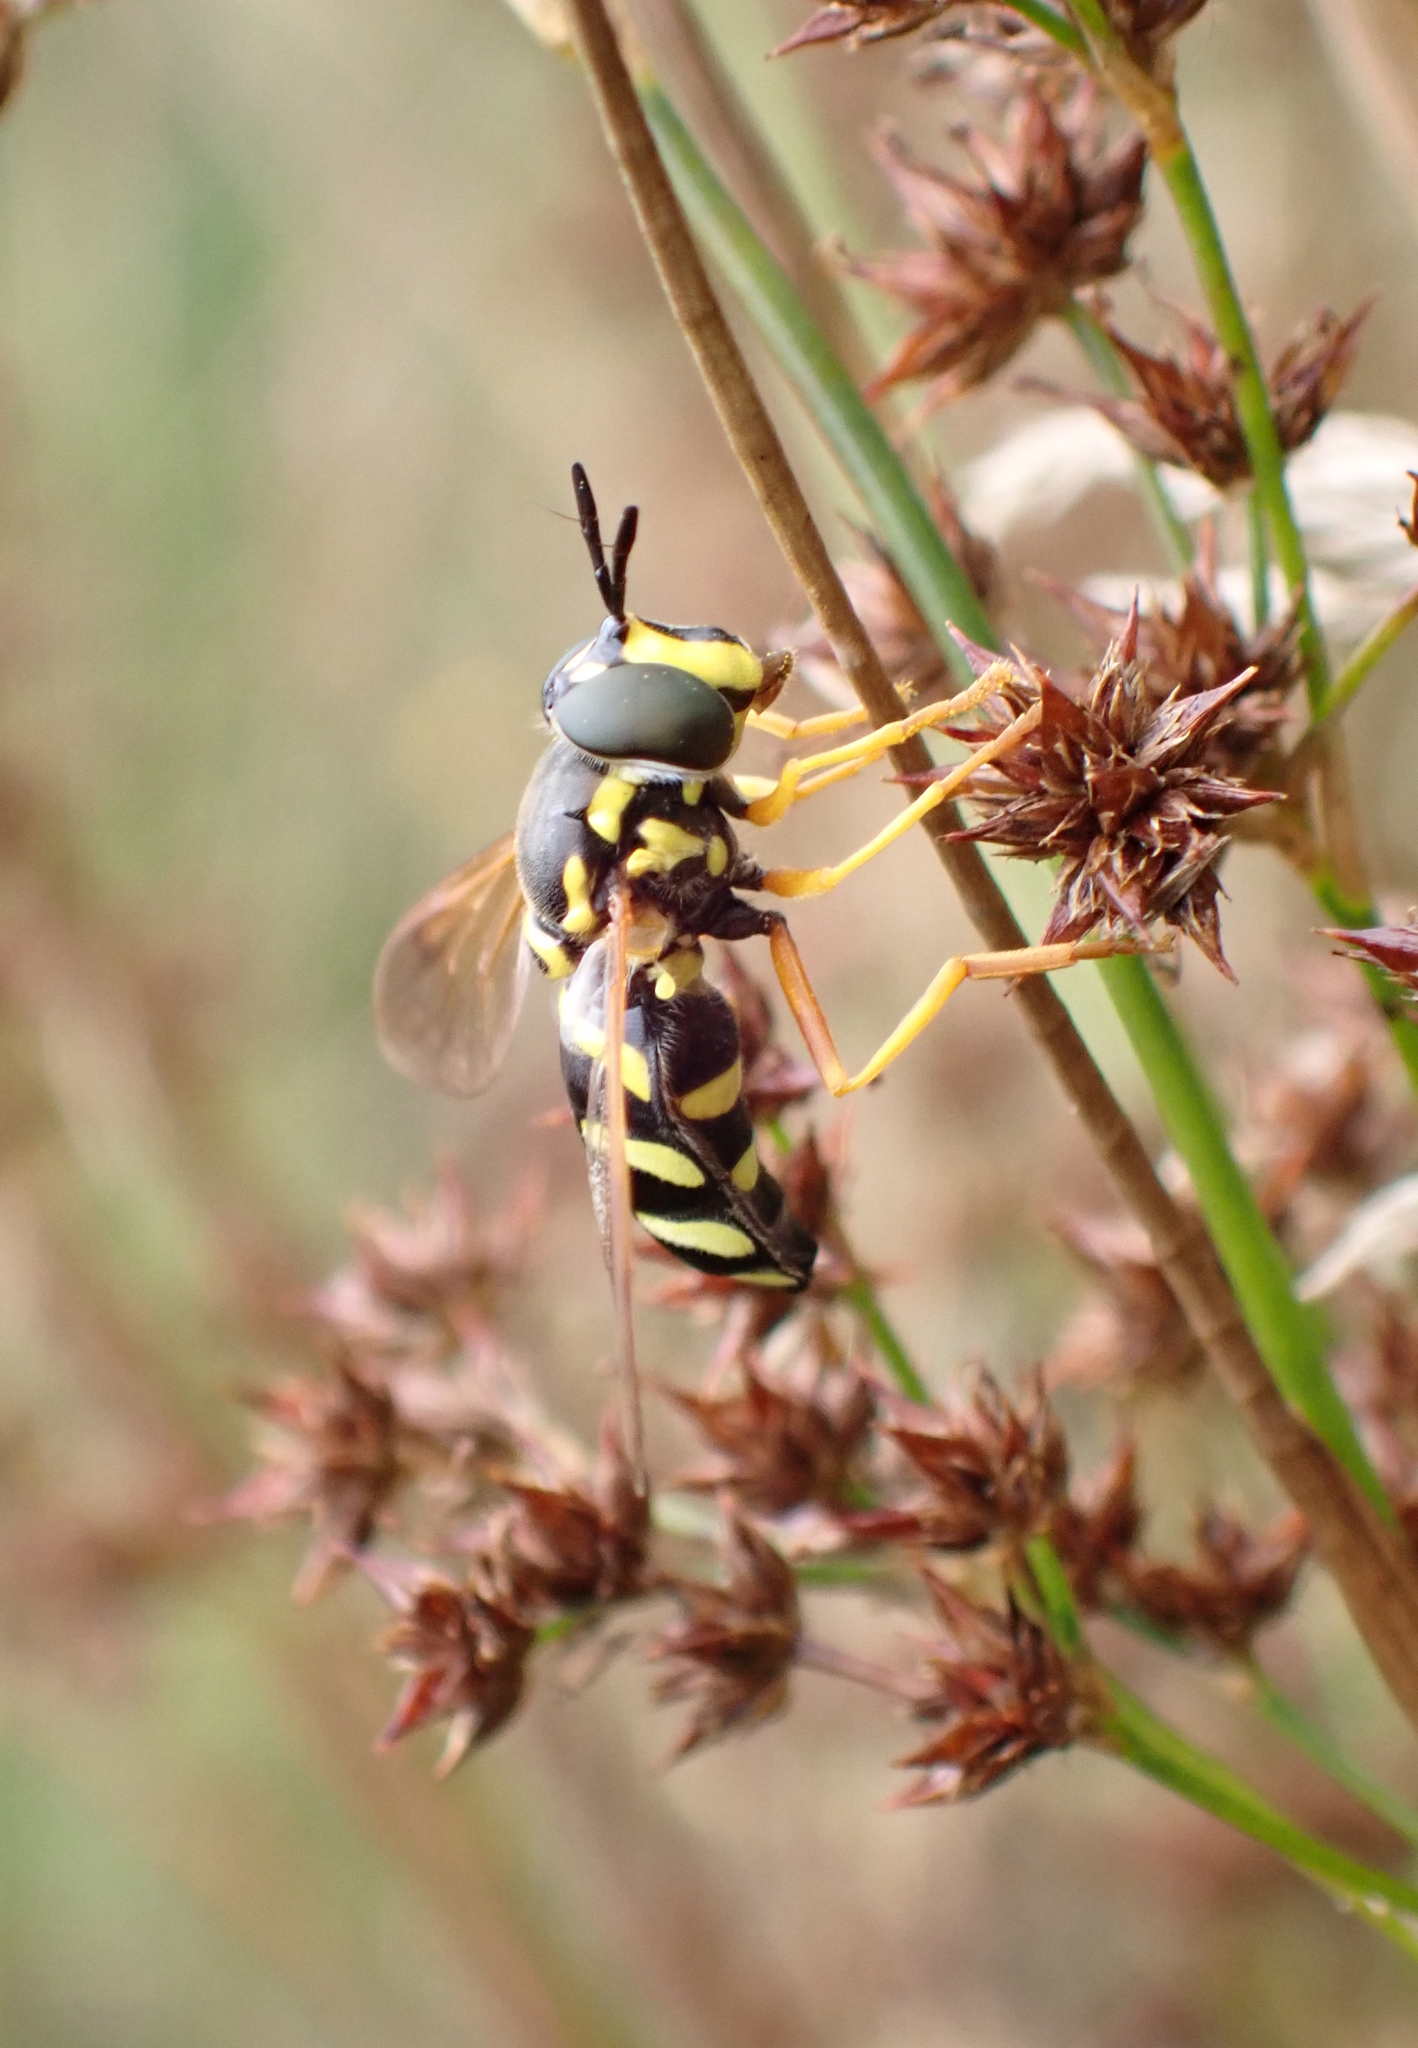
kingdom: Animalia
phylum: Arthropoda
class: Insecta
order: Diptera
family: Syrphidae
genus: Chrysotoxum
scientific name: Chrysotoxum festivum
